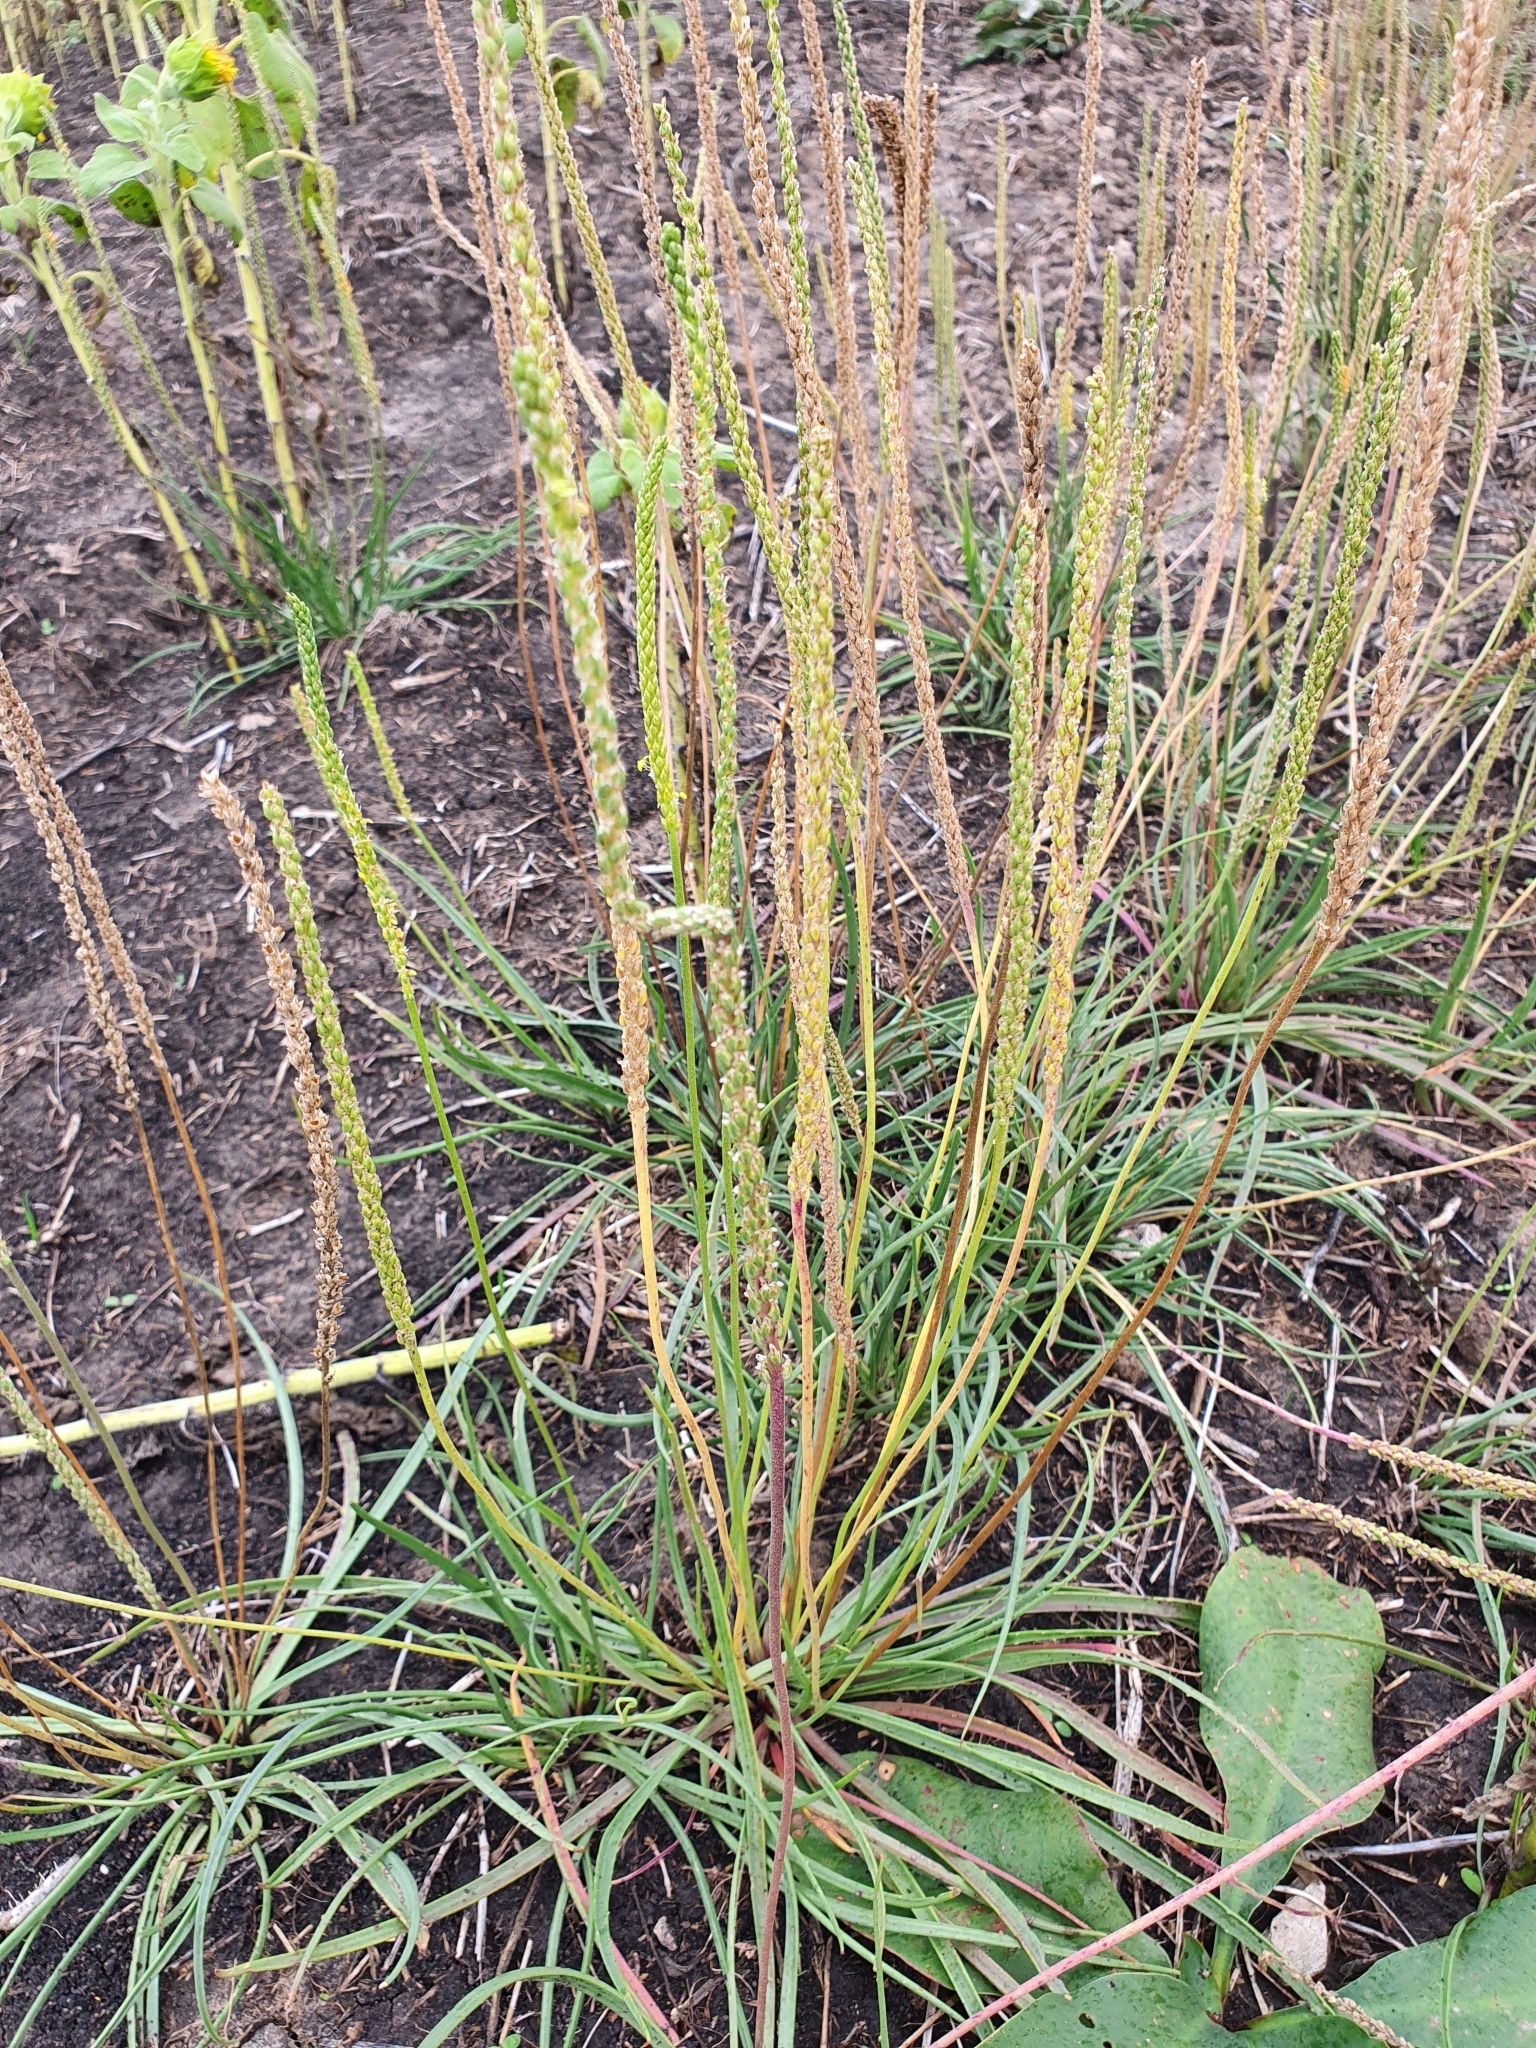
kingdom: Plantae
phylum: Tracheophyta
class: Magnoliopsida
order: Lamiales
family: Plantaginaceae
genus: Plantago
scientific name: Plantago salsa
